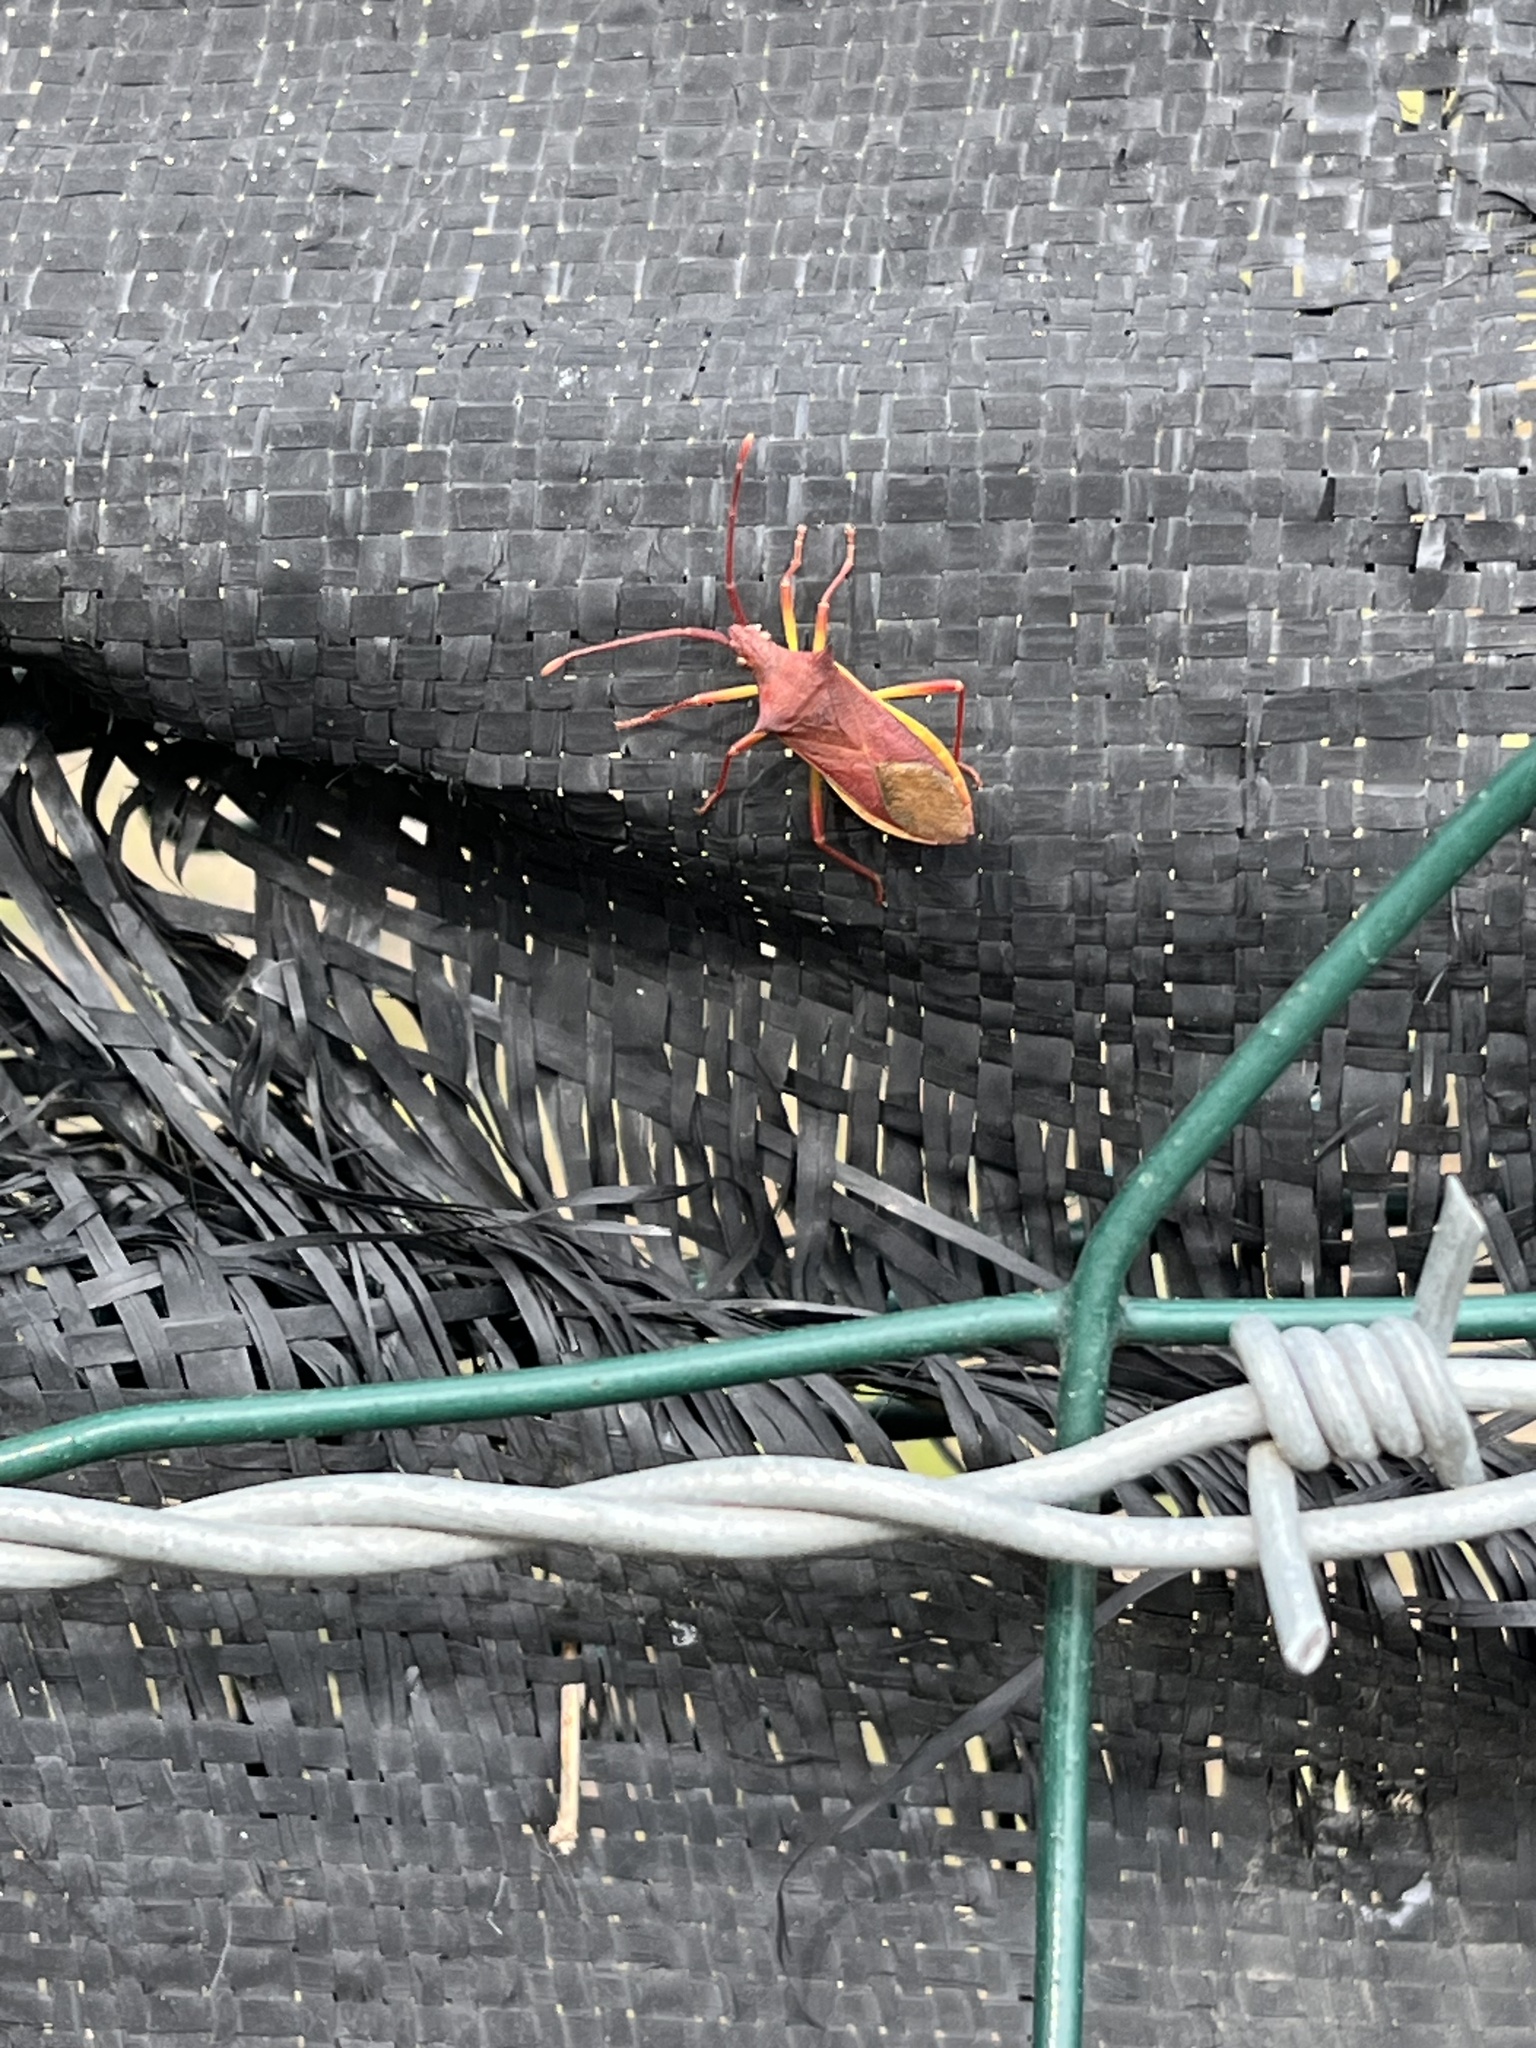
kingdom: Animalia
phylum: Arthropoda
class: Insecta
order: Hemiptera
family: Coreidae
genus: Gonocerus
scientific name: Gonocerus insidiator
